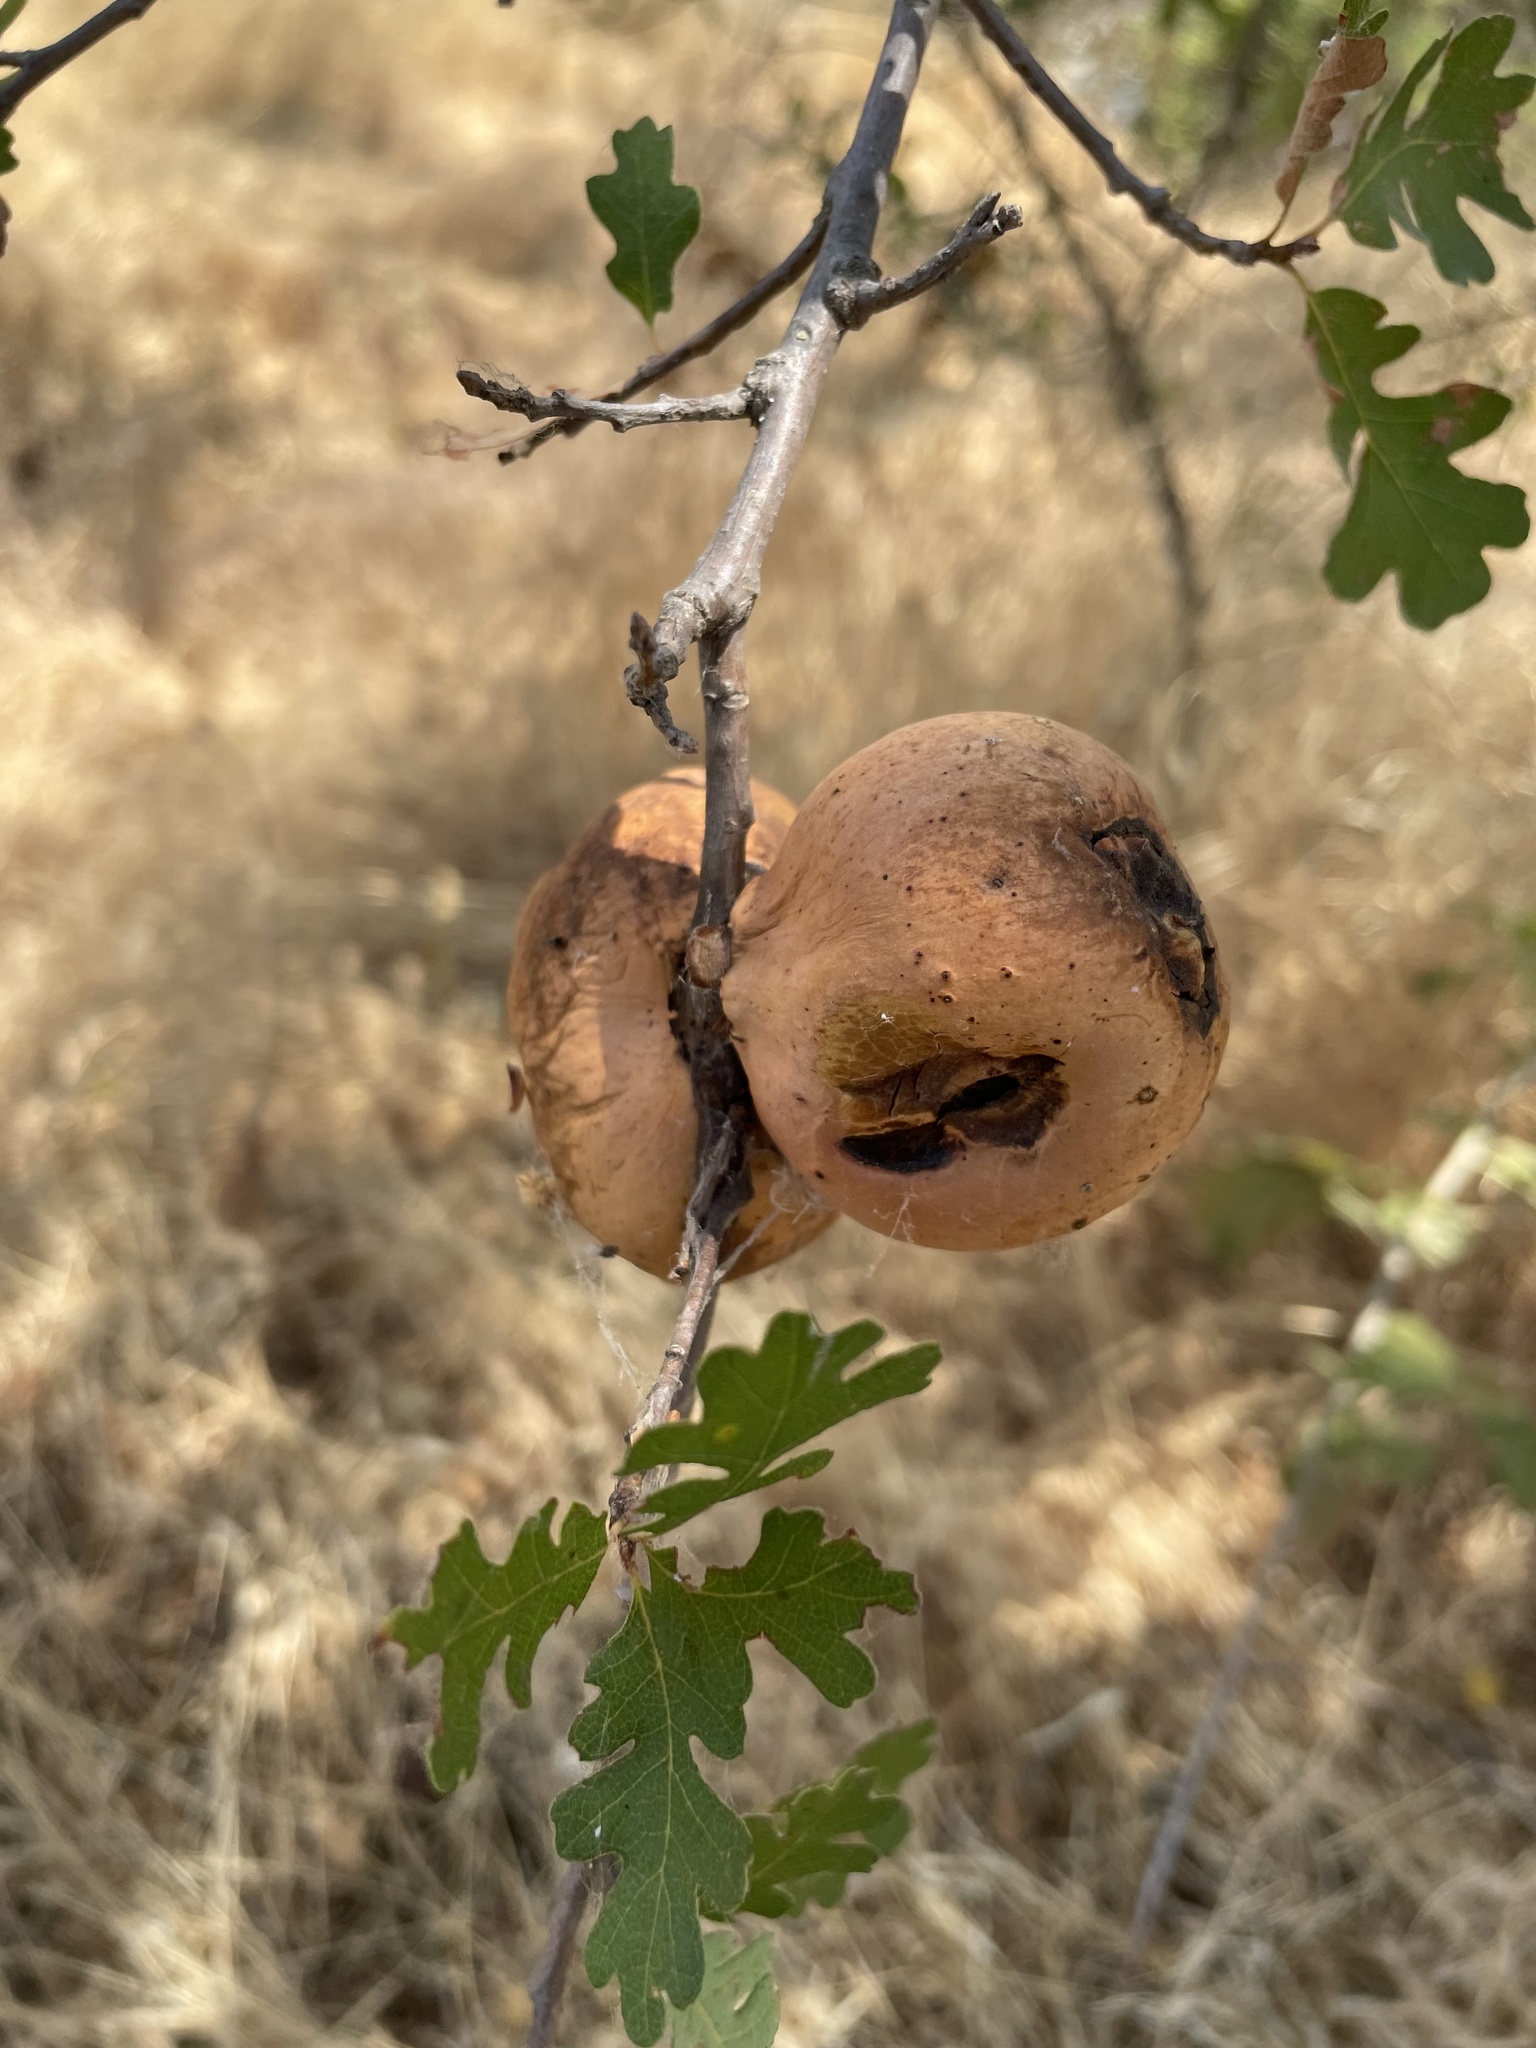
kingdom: Animalia
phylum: Arthropoda
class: Insecta
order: Hymenoptera
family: Cynipidae
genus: Andricus
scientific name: Andricus quercuscalifornicus
